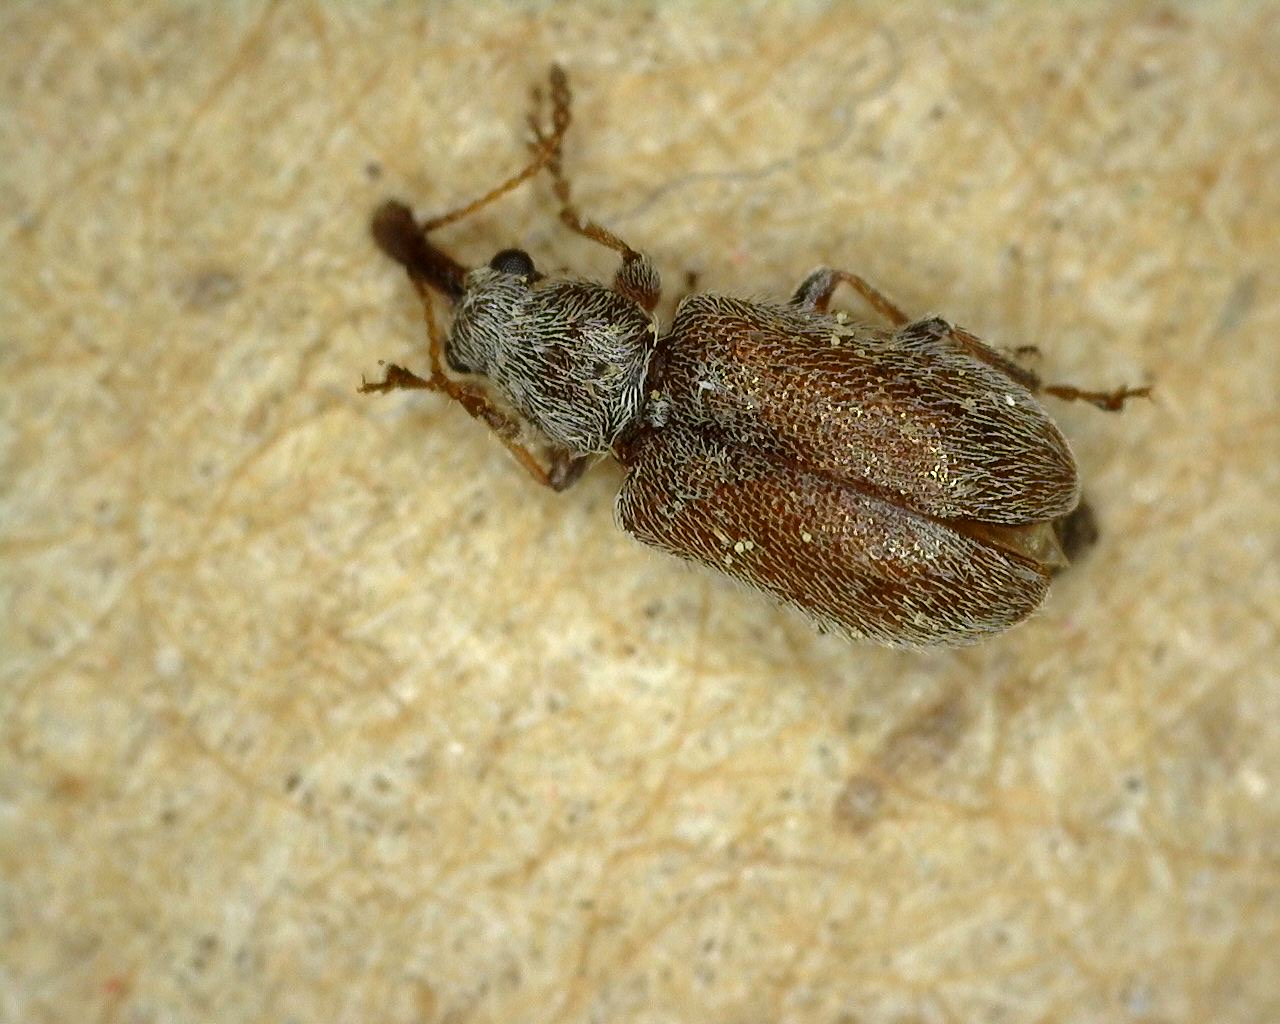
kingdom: Animalia
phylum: Arthropoda
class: Insecta
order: Coleoptera
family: Nemonychidae
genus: Cimberis
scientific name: Cimberis pilosa
